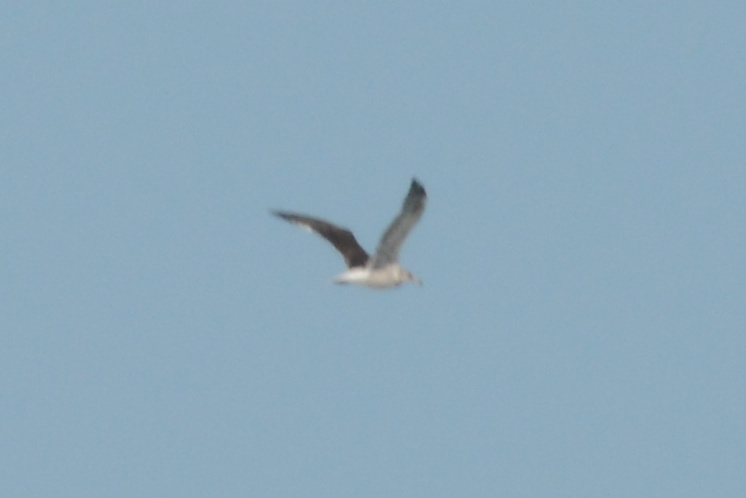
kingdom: Animalia
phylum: Chordata
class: Aves
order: Charadriiformes
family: Laridae
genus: Larus
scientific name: Larus dominicanus
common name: Kelp gull
